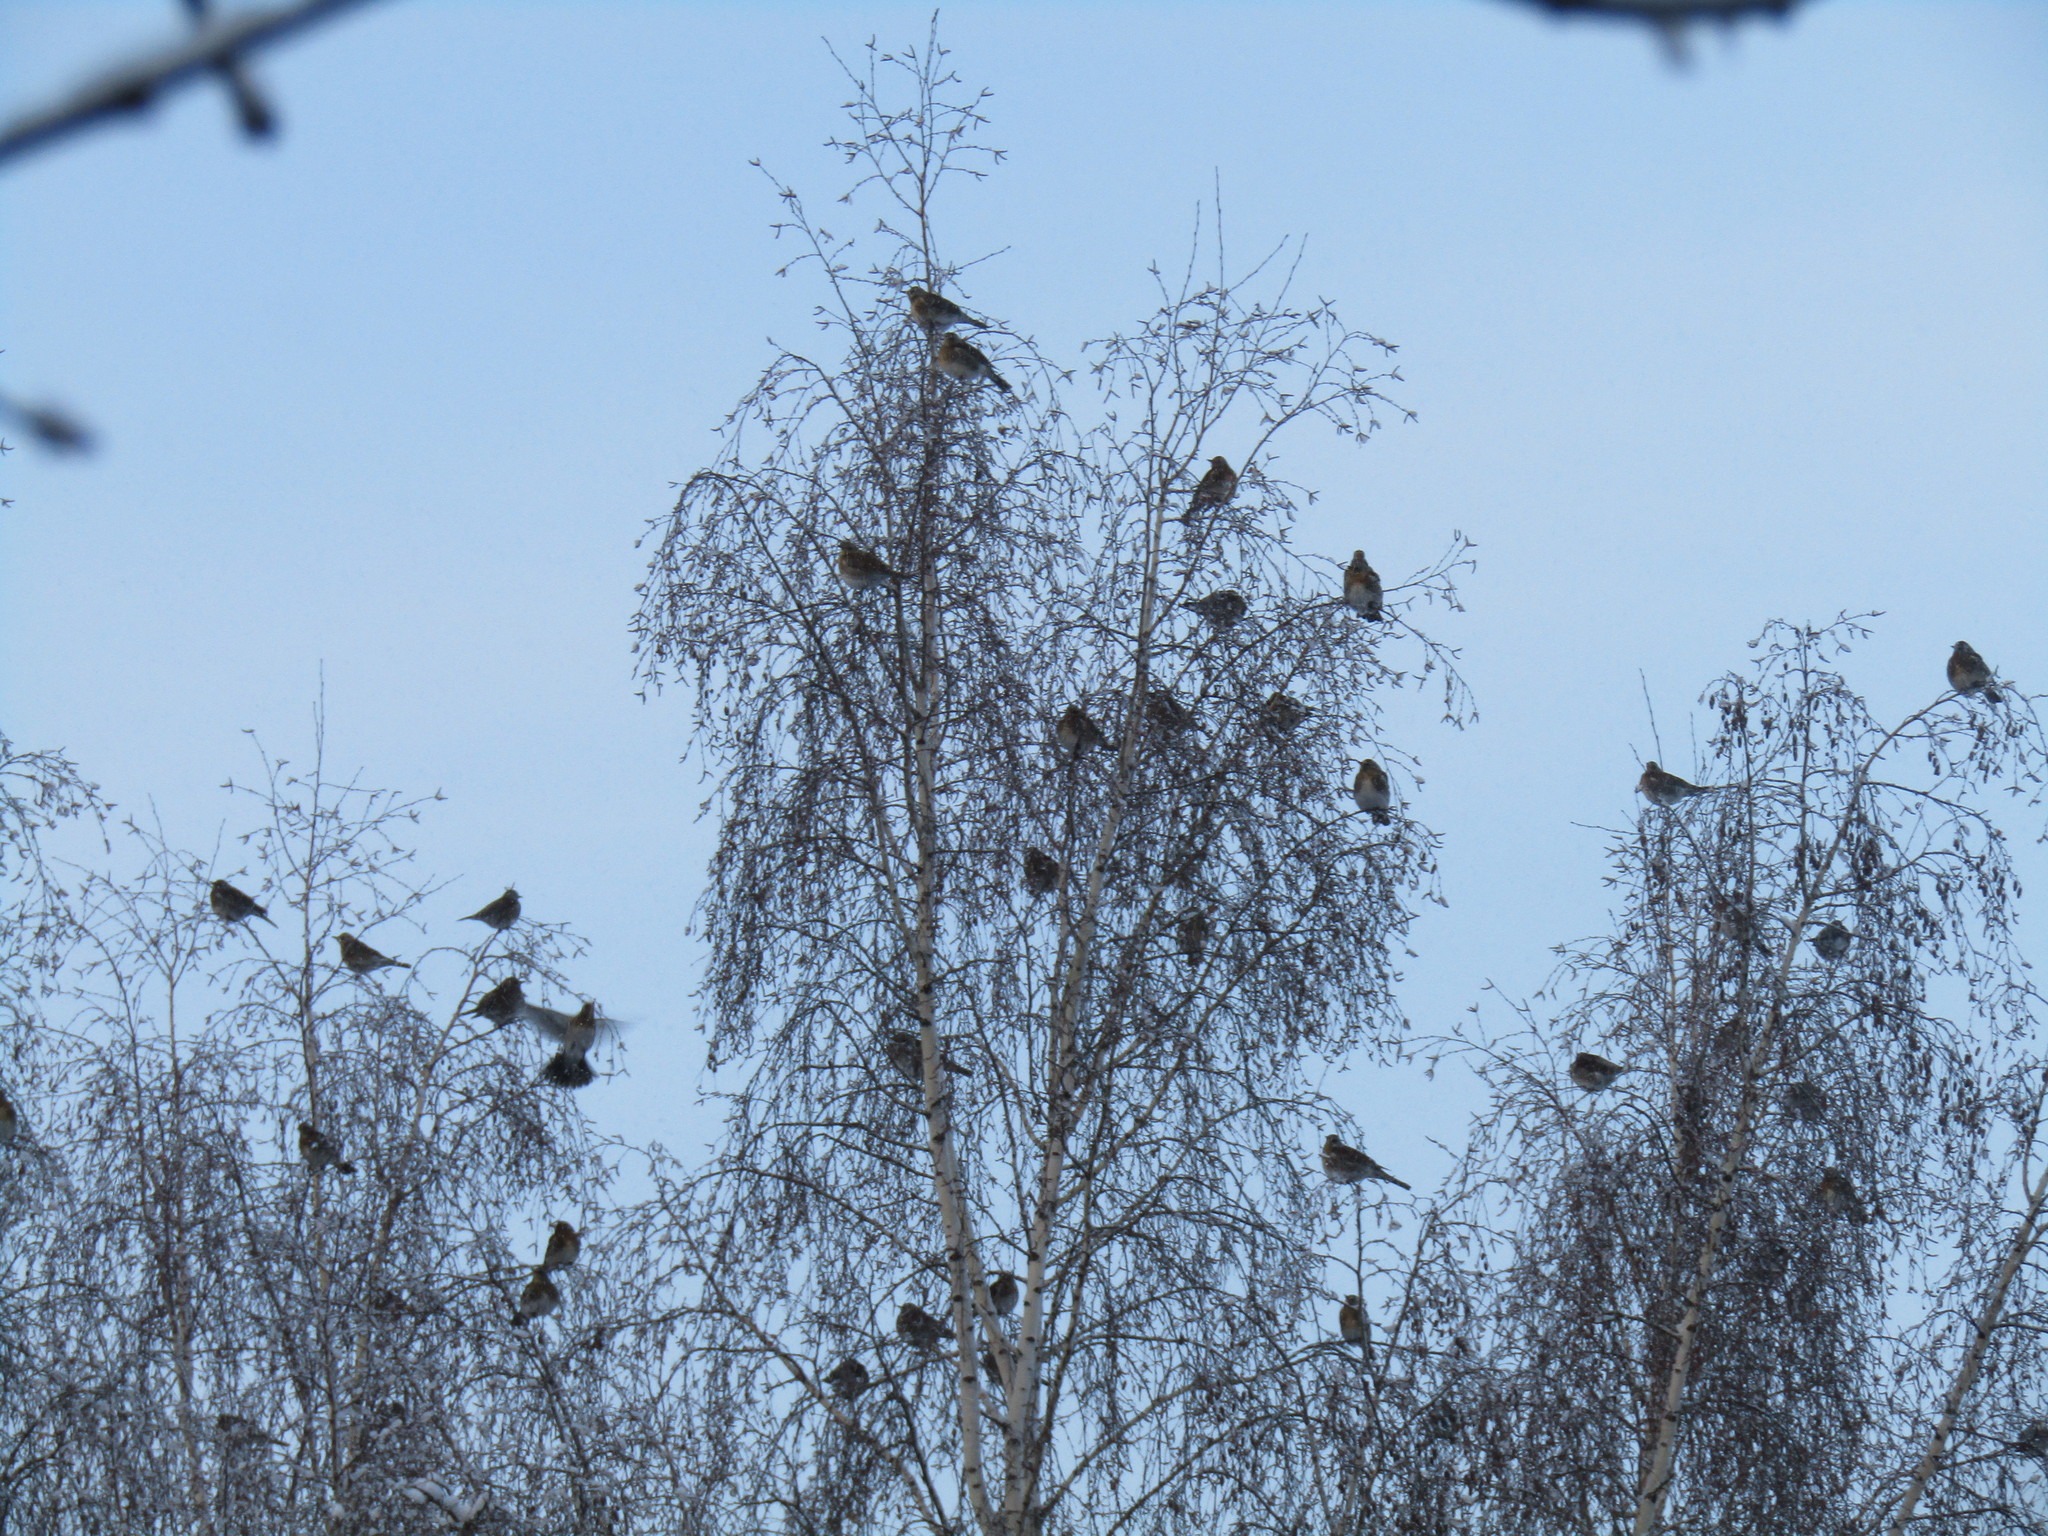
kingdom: Animalia
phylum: Chordata
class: Aves
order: Passeriformes
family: Turdidae
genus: Turdus
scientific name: Turdus pilaris
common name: Fieldfare
